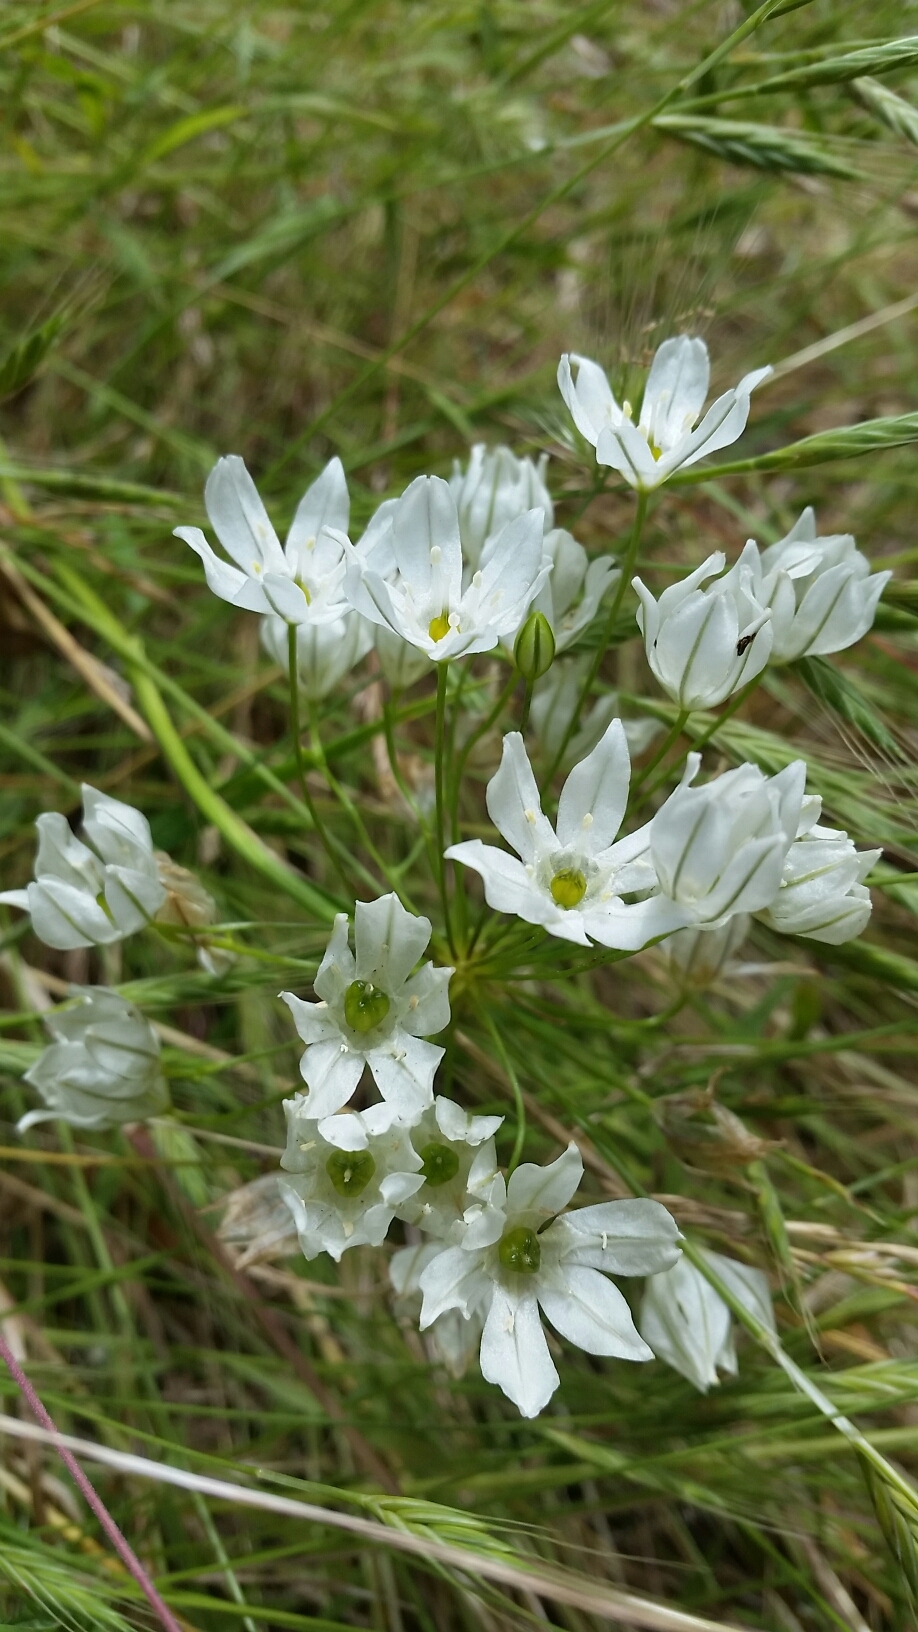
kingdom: Plantae
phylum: Tracheophyta
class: Liliopsida
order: Asparagales
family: Asparagaceae
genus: Triteleia
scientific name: Triteleia hyacinthina
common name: White brodiaea
